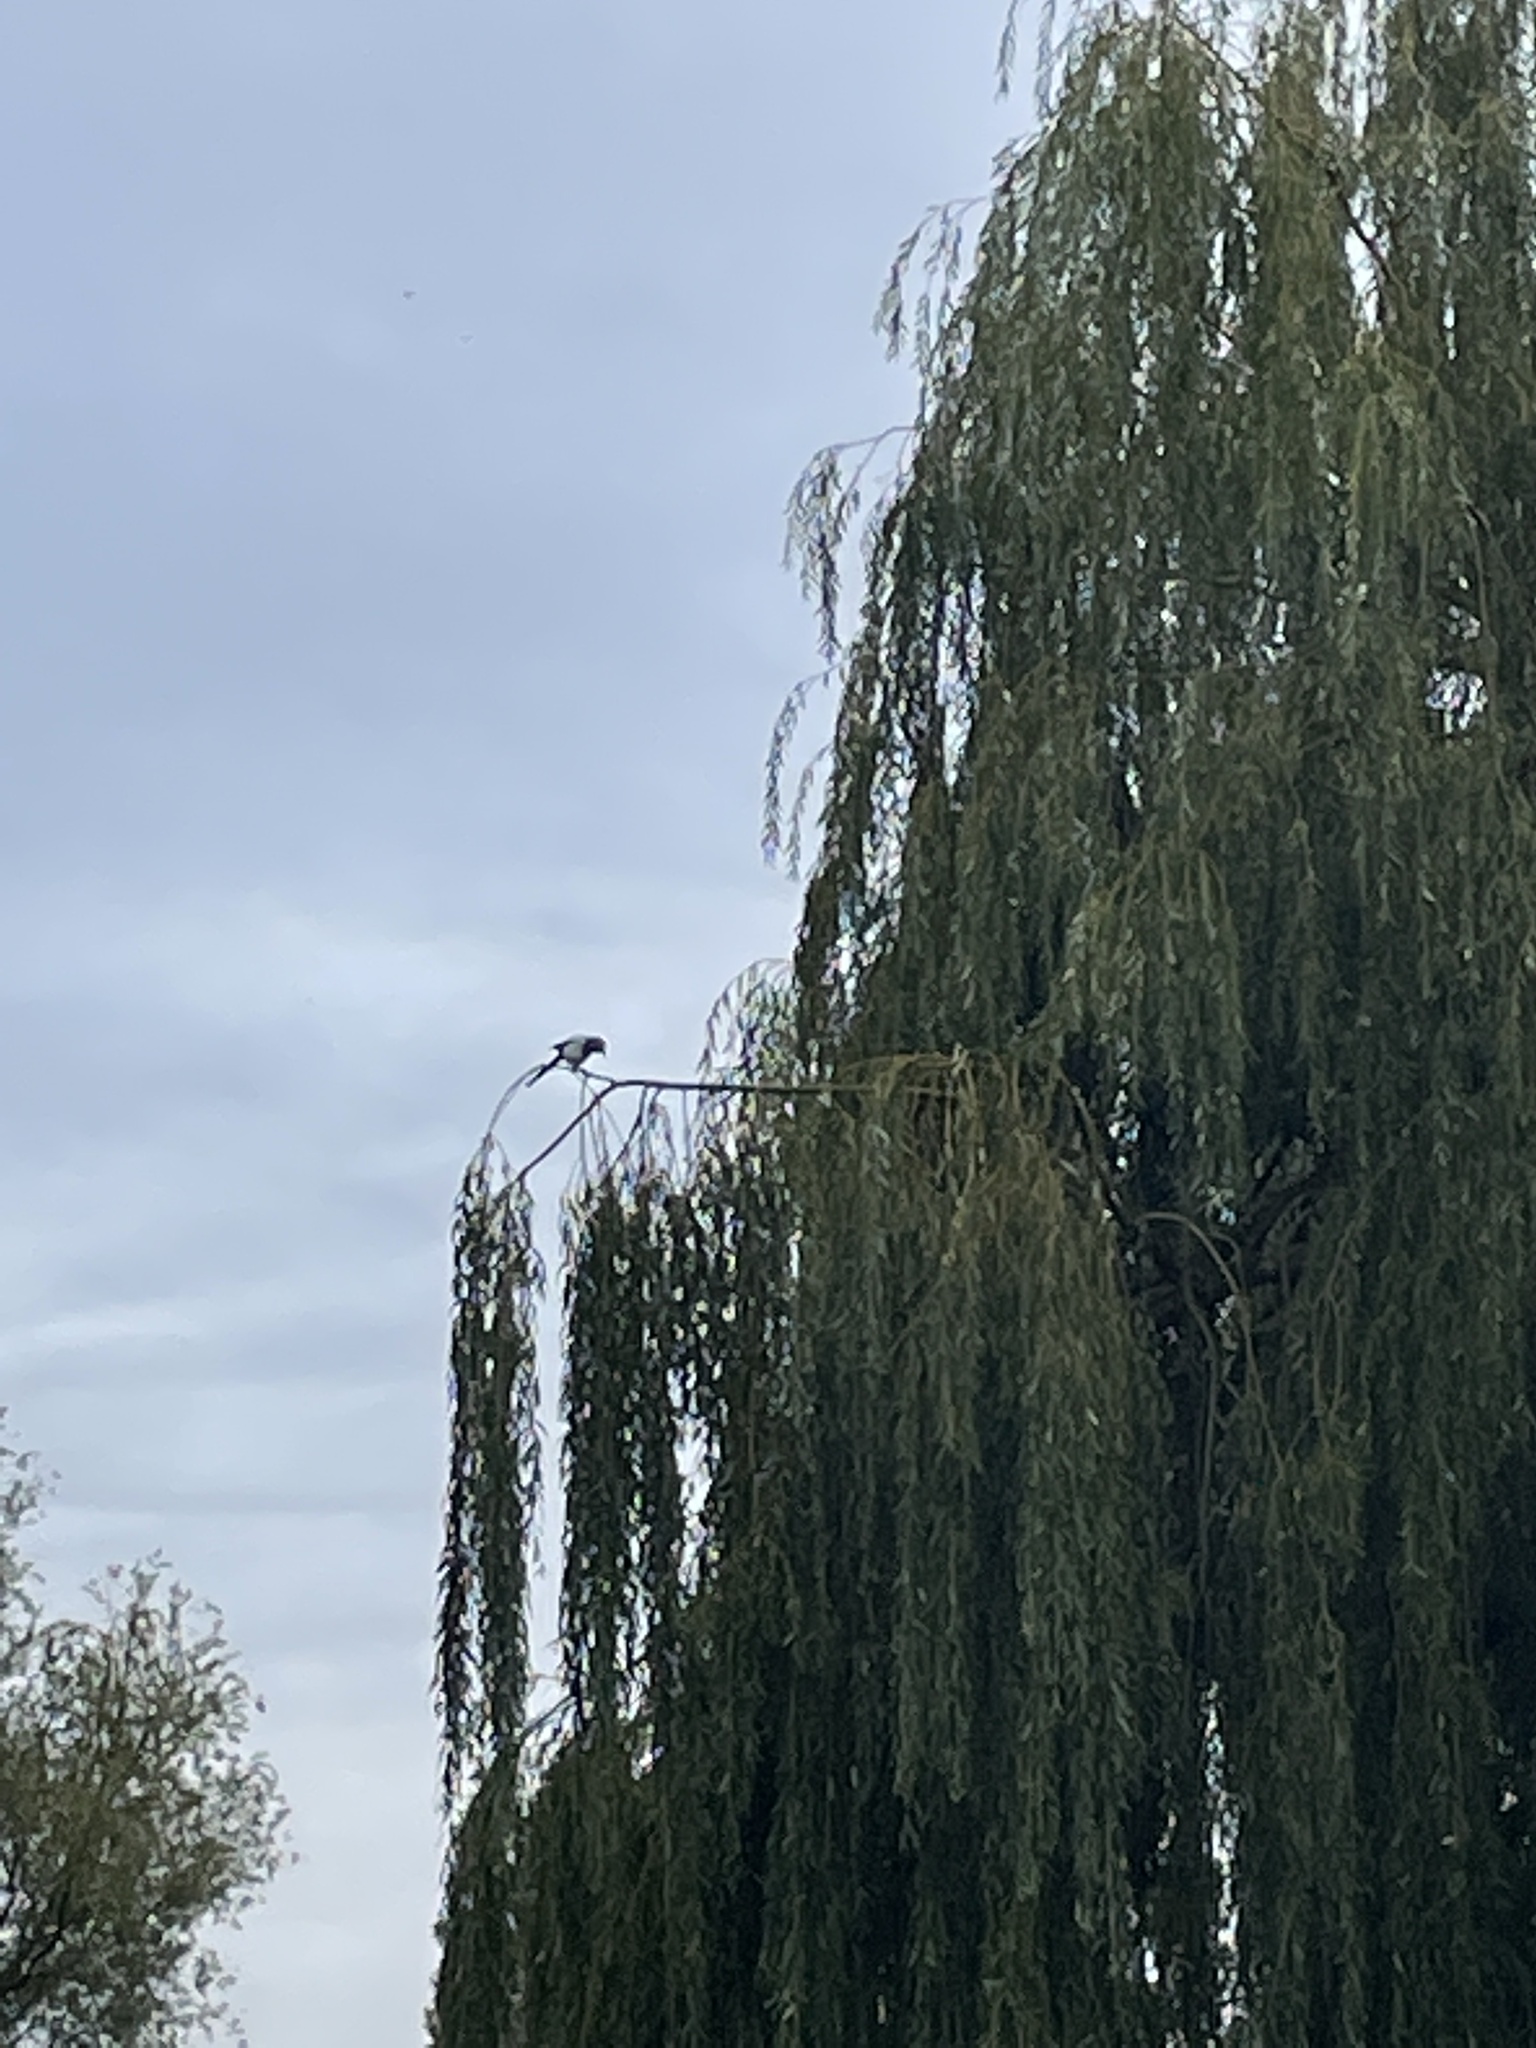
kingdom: Animalia
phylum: Chordata
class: Aves
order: Passeriformes
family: Corvidae
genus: Pica
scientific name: Pica pica
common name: Eurasian magpie
